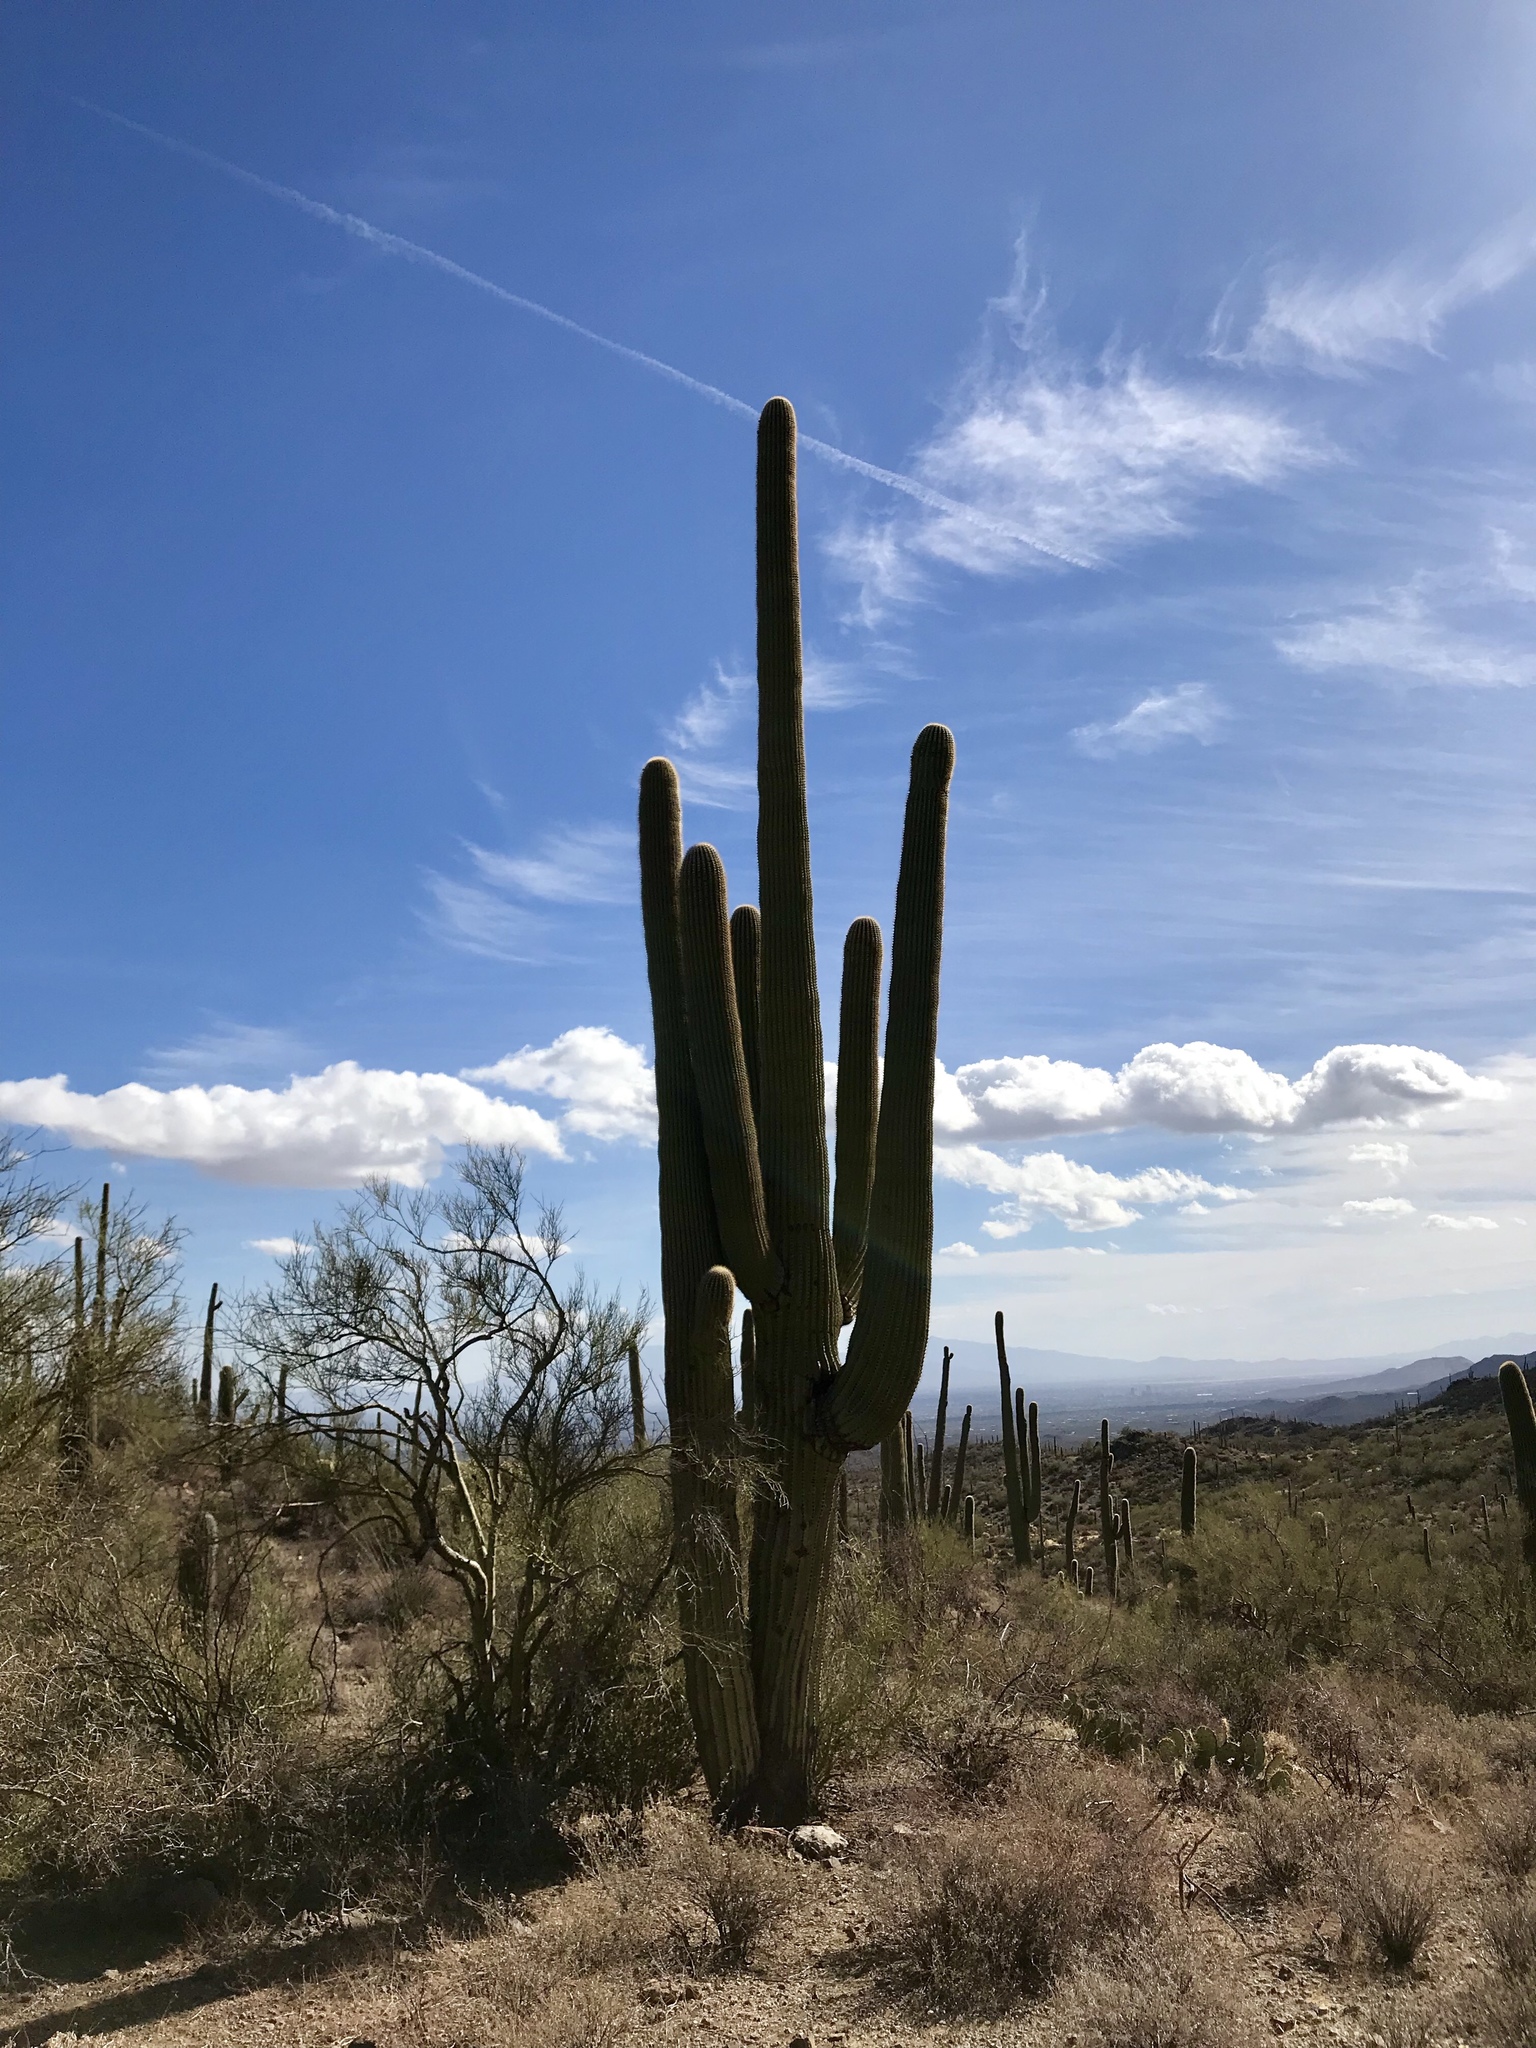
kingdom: Plantae
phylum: Tracheophyta
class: Magnoliopsida
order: Caryophyllales
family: Cactaceae
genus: Carnegiea
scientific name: Carnegiea gigantea
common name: Saguaro
